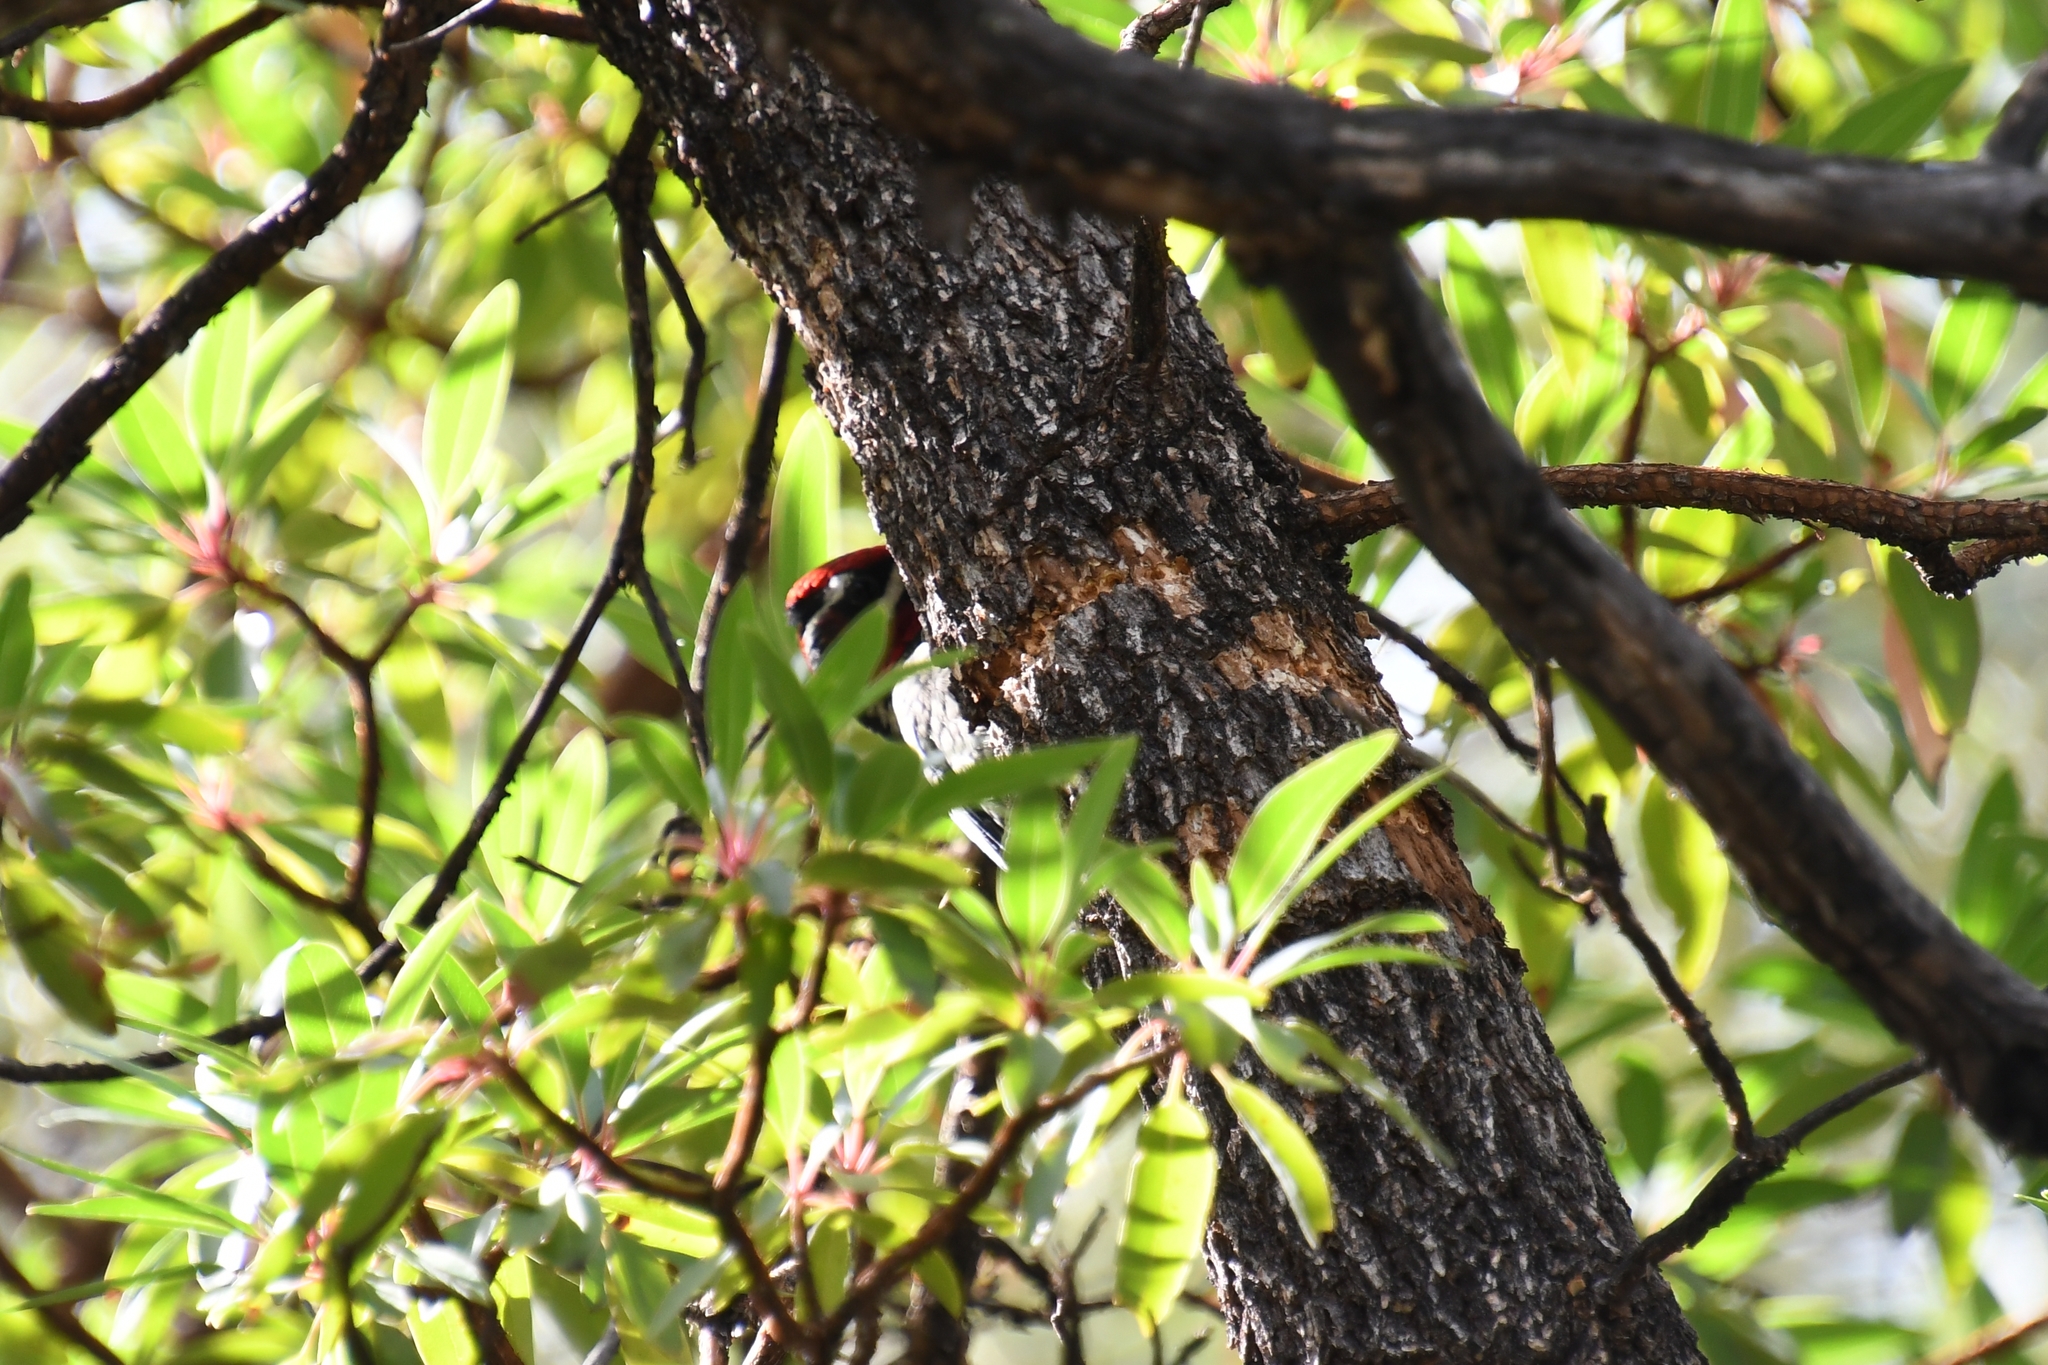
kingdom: Animalia
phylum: Chordata
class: Aves
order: Piciformes
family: Picidae
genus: Sphyrapicus
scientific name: Sphyrapicus nuchalis
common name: Red-naped sapsucker
